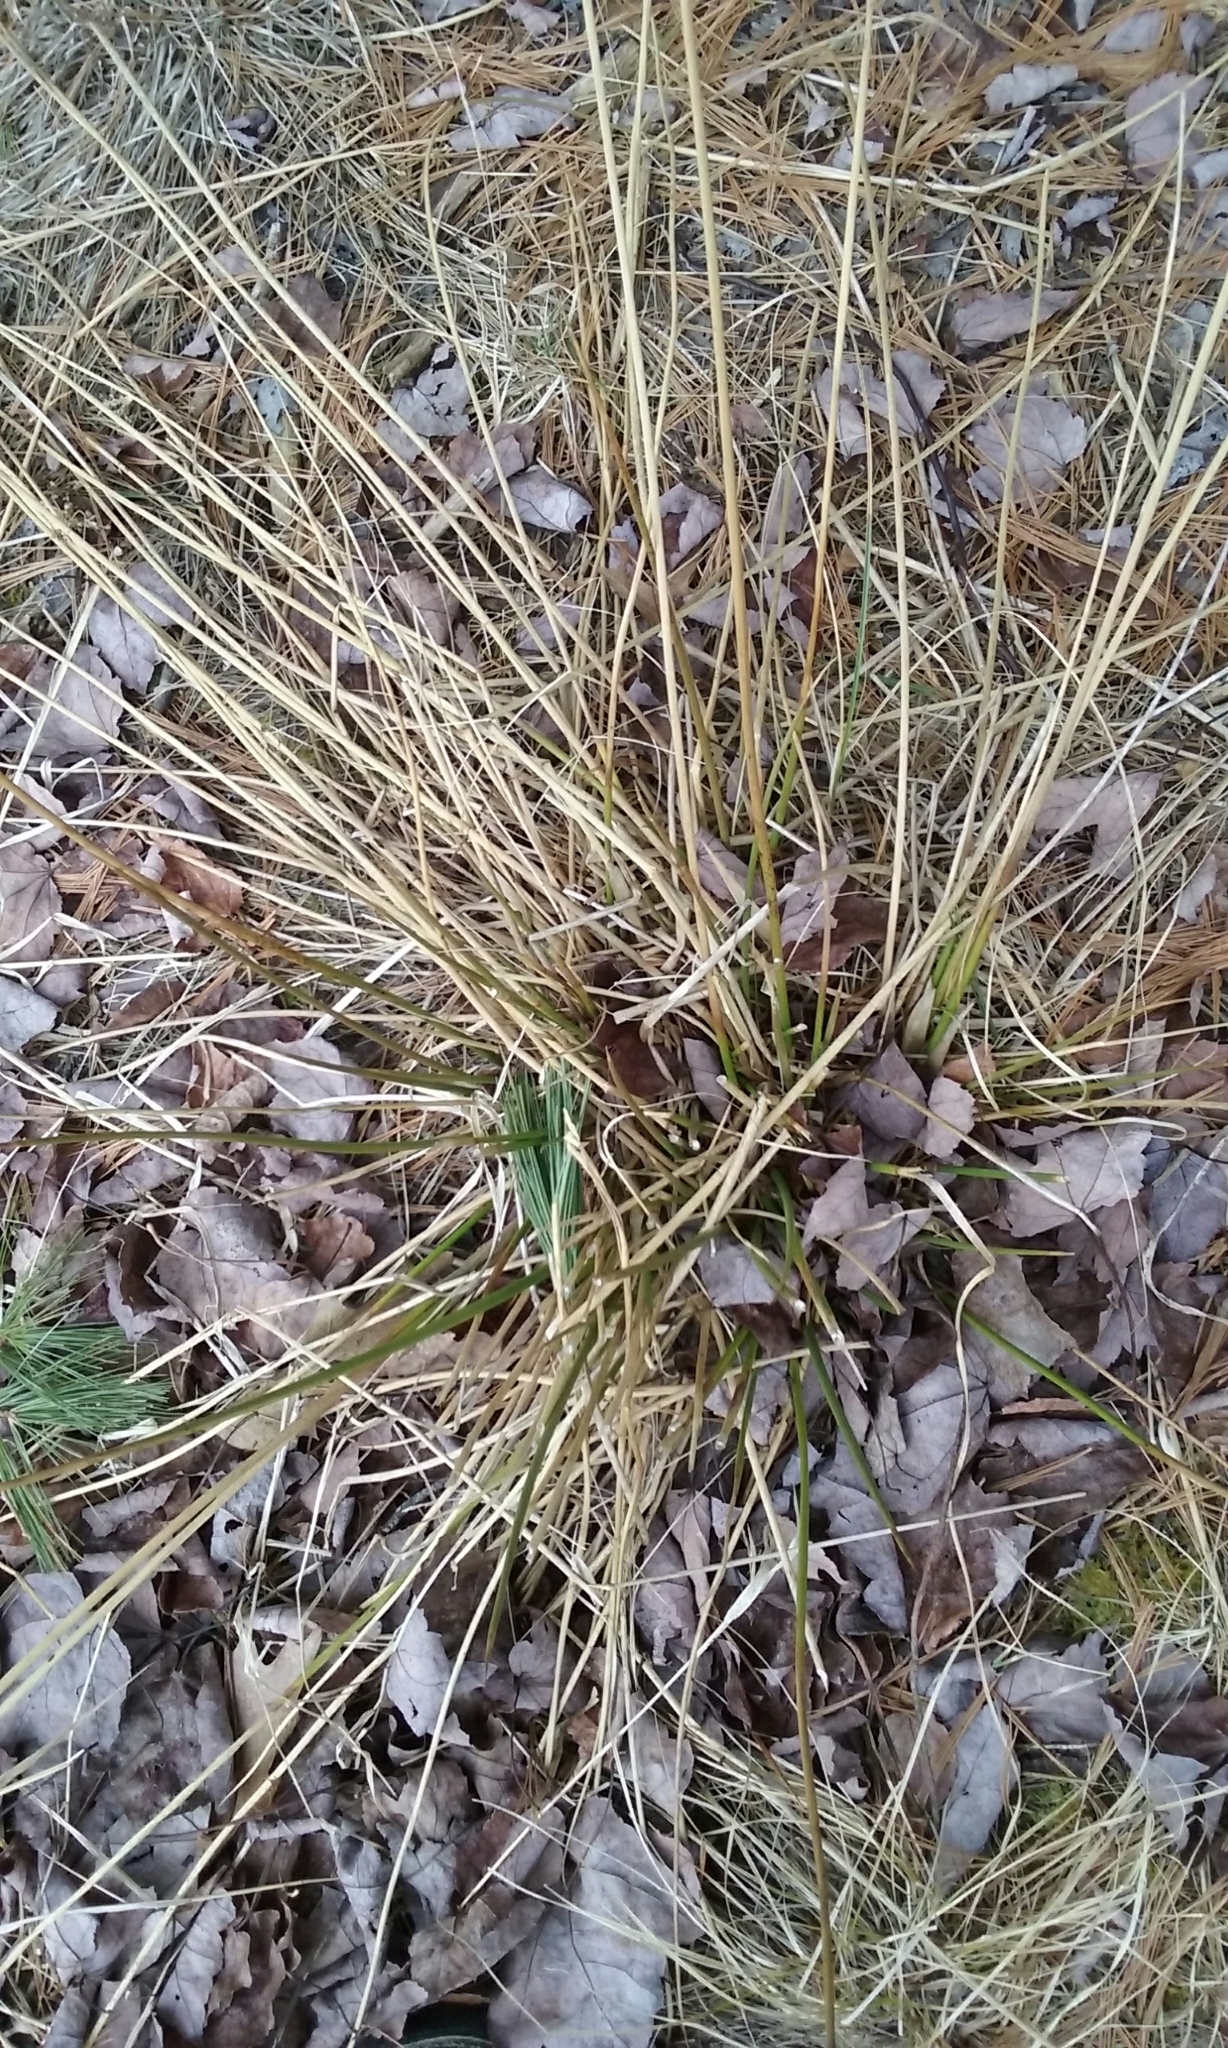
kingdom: Plantae
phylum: Tracheophyta
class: Liliopsida
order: Poales
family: Juncaceae
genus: Juncus
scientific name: Juncus
